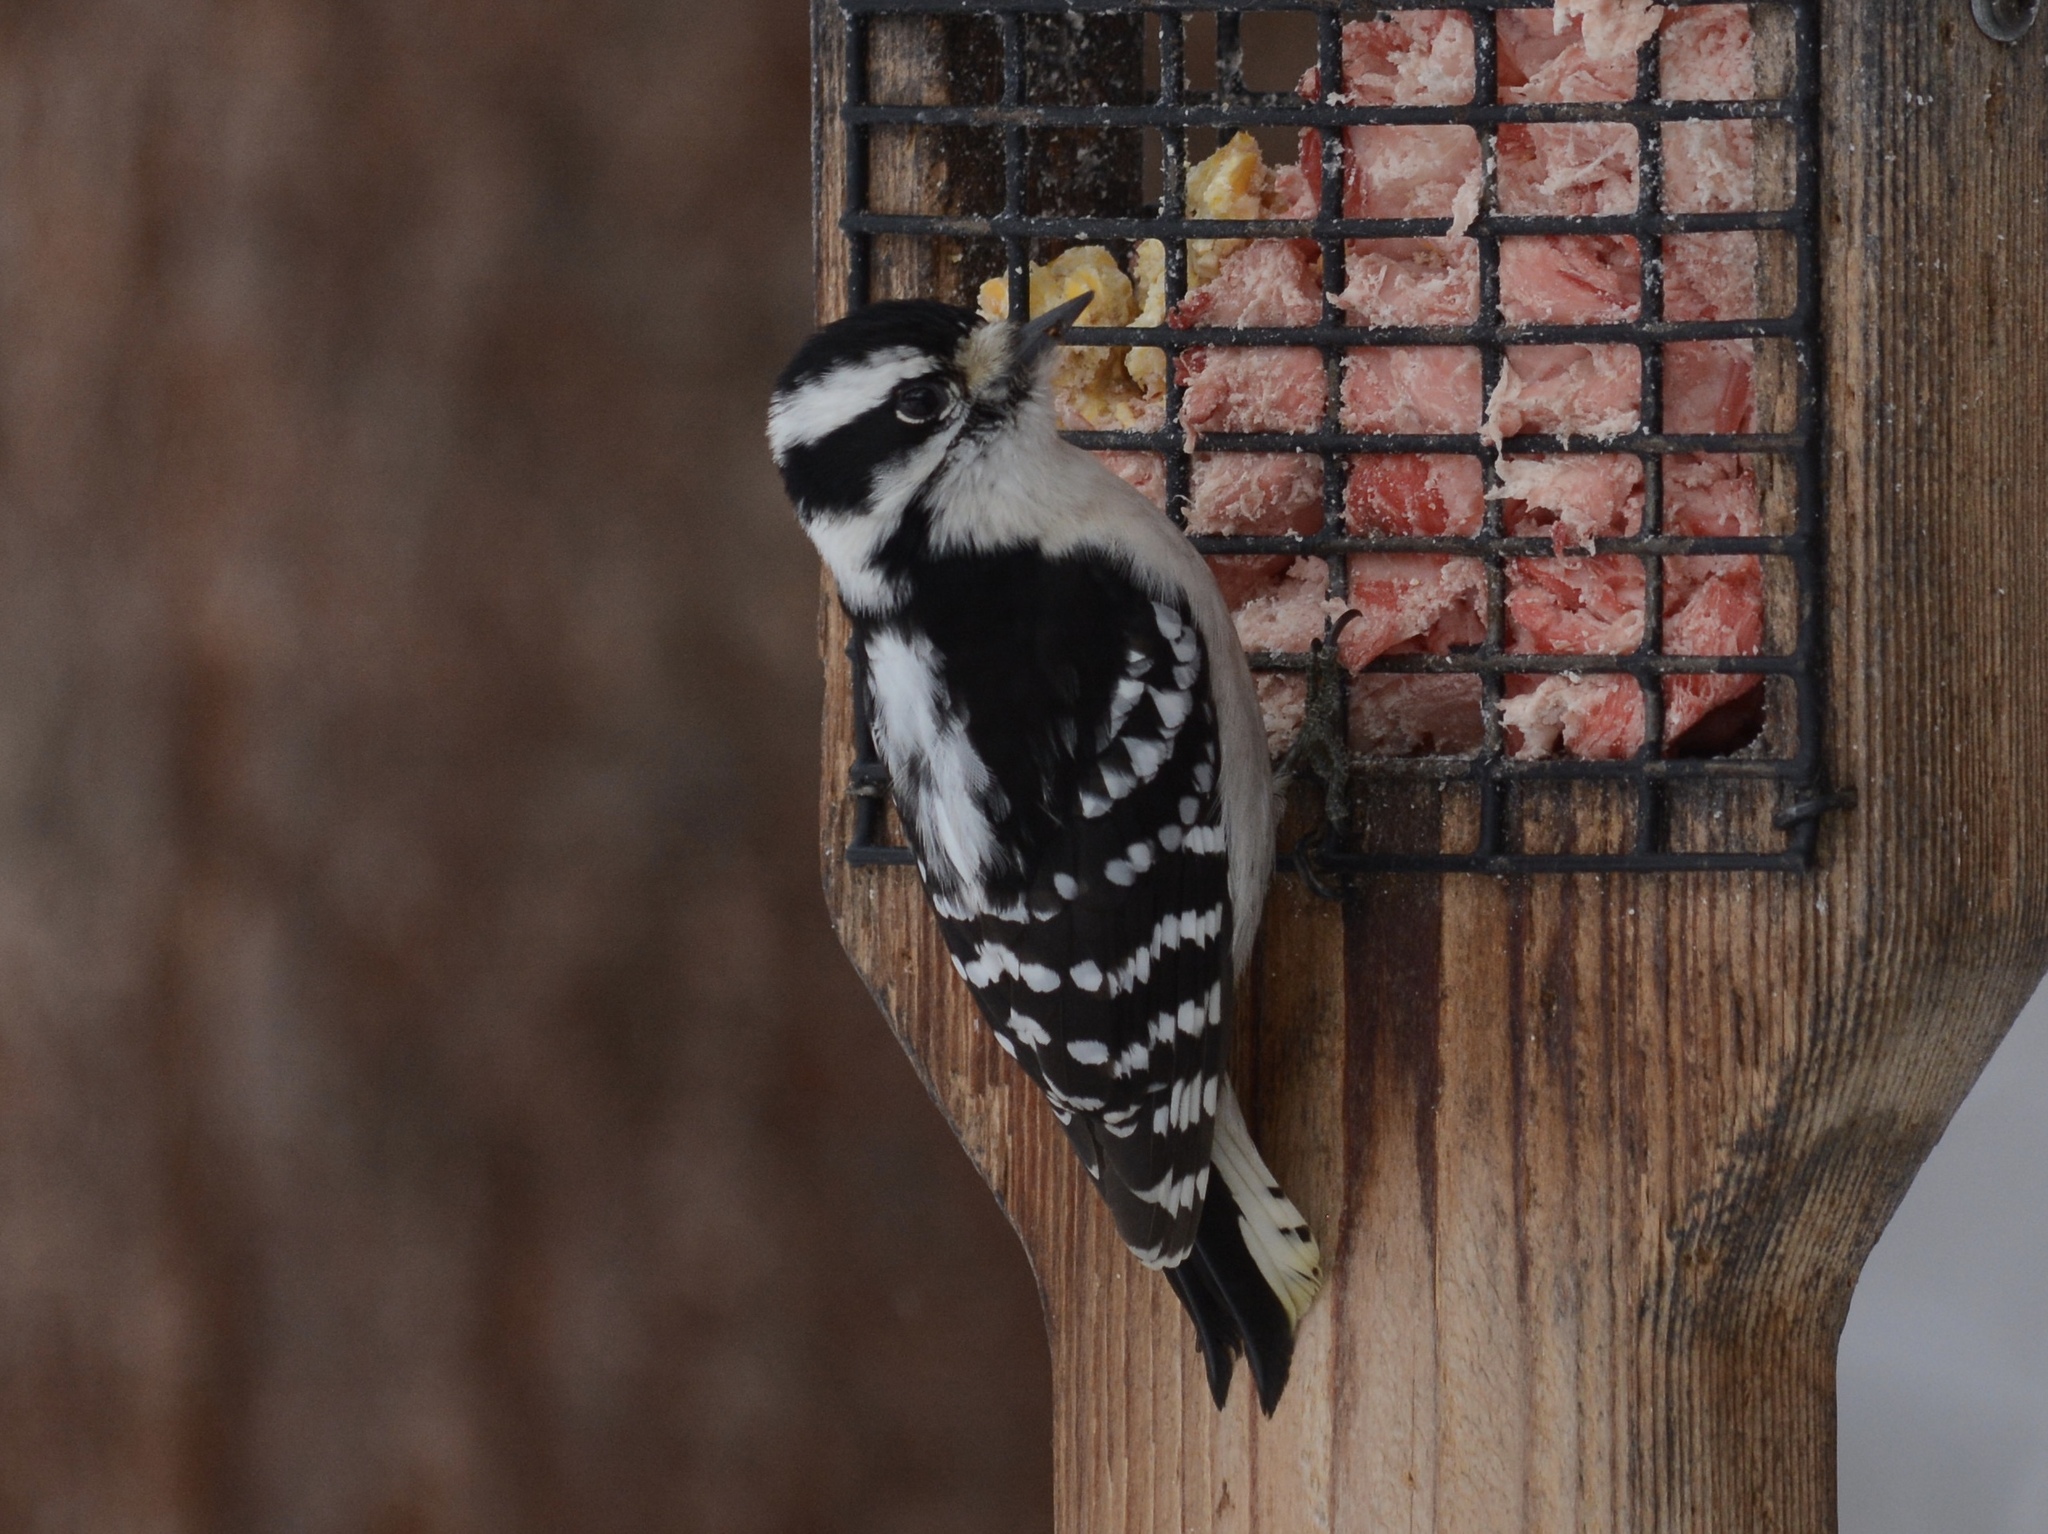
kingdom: Animalia
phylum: Chordata
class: Aves
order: Piciformes
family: Picidae
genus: Dryobates
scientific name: Dryobates pubescens
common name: Downy woodpecker
